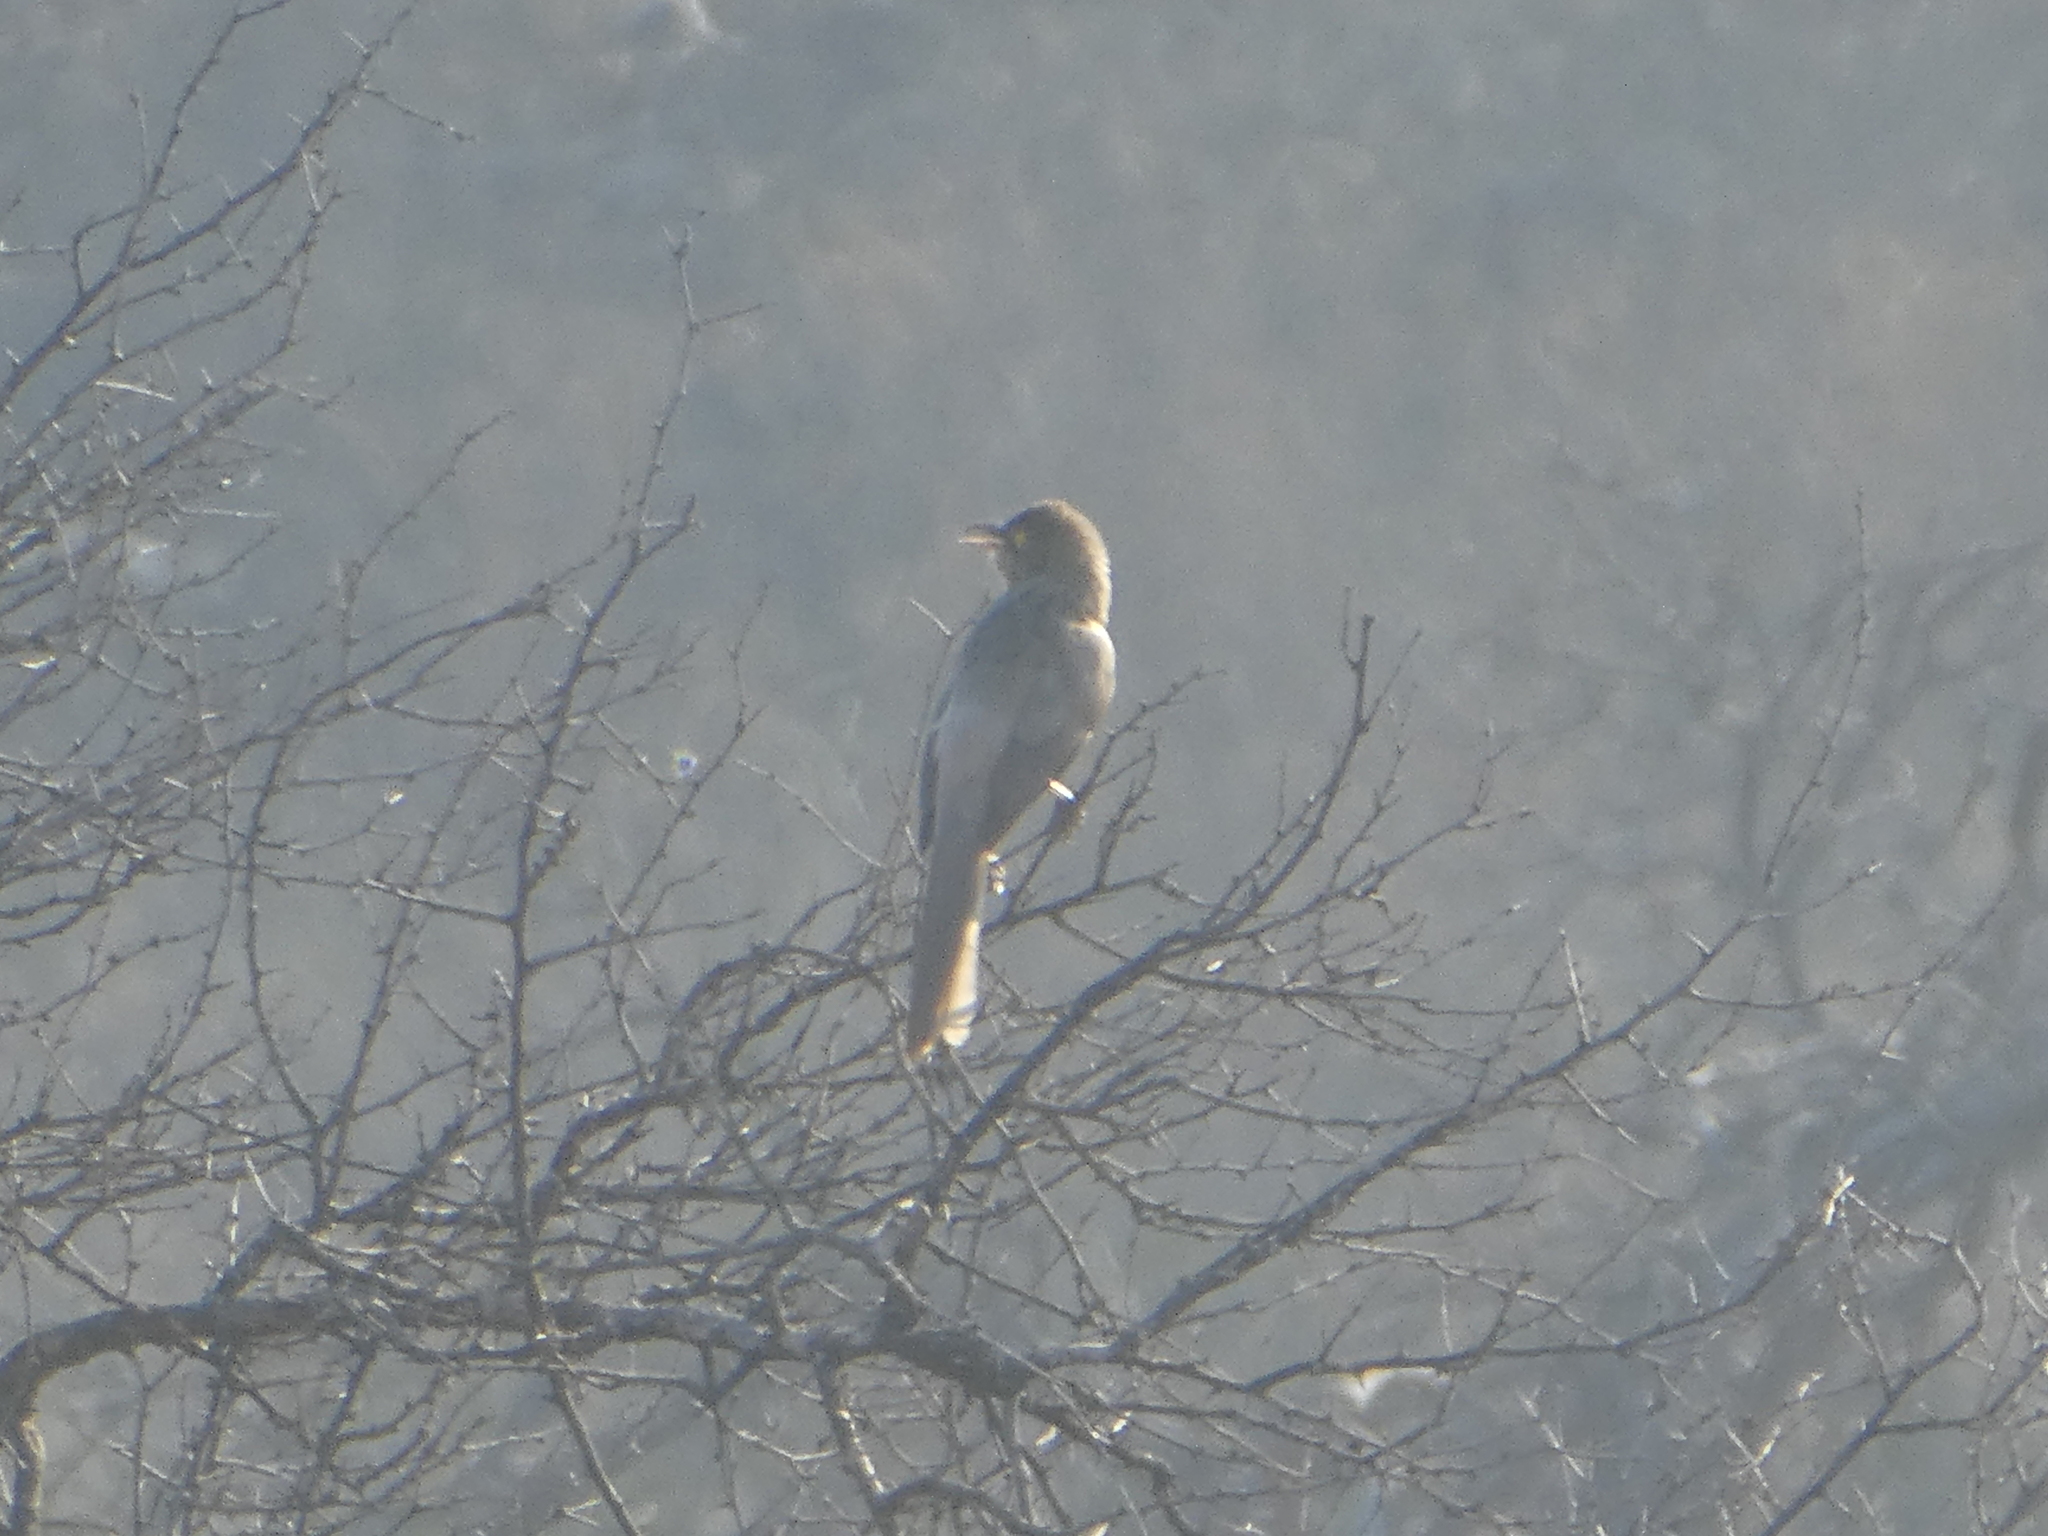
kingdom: Animalia
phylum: Chordata
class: Aves
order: Passeriformes
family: Leiothrichidae
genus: Turdoides
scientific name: Turdoides malcolmi
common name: Large grey babbler
